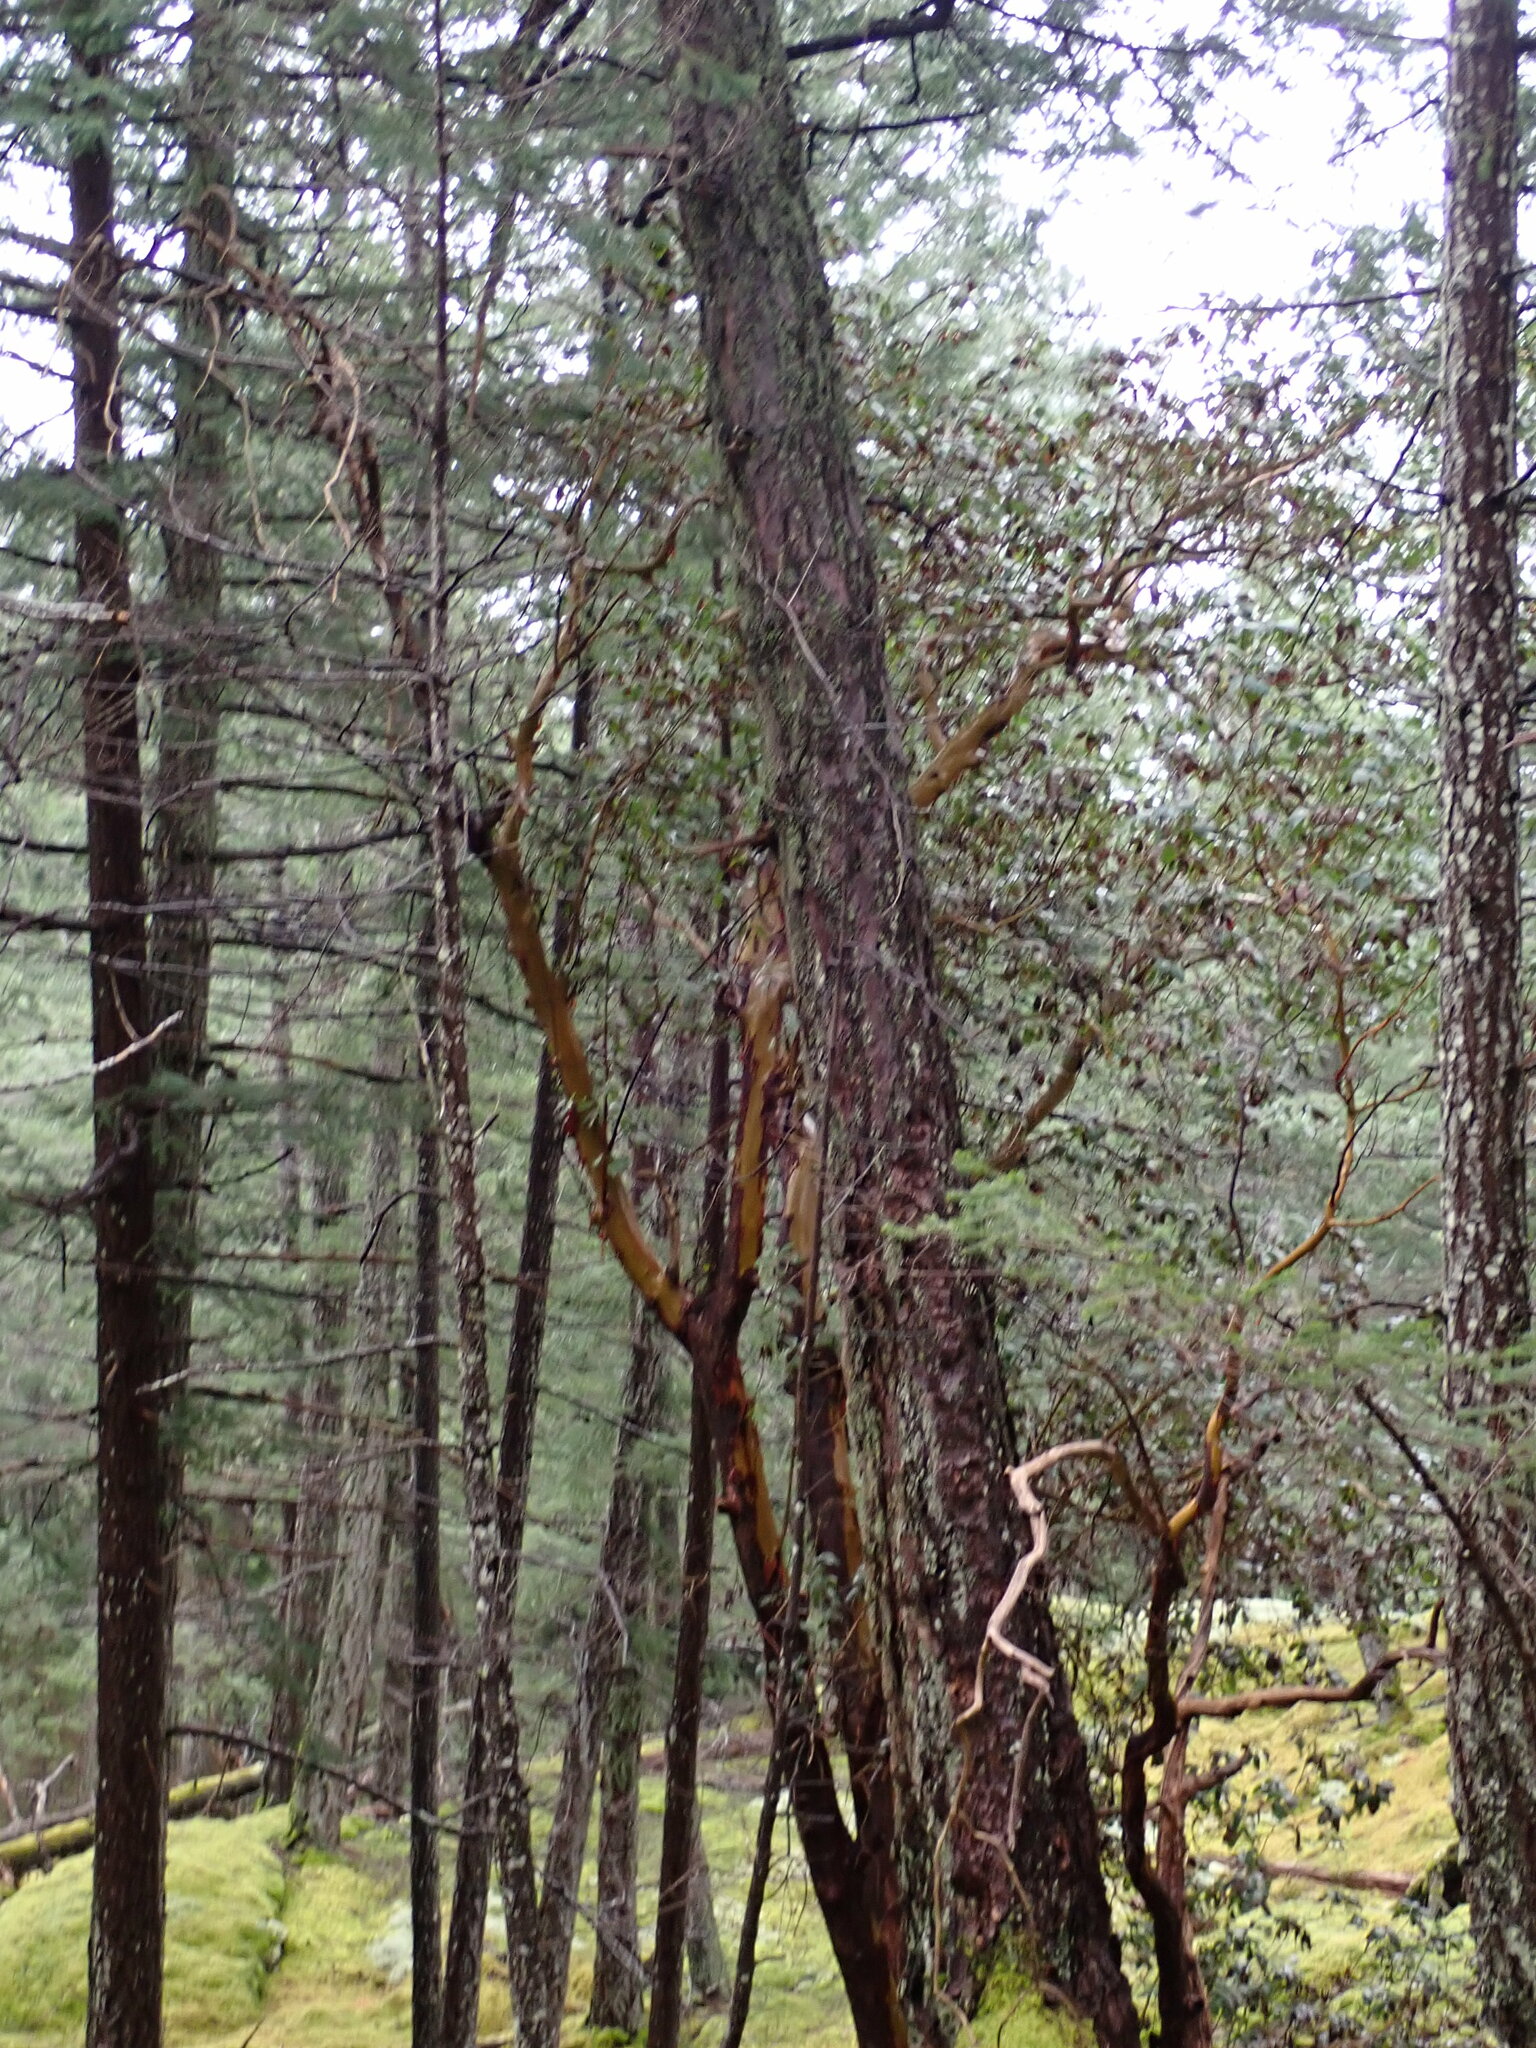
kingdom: Plantae
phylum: Tracheophyta
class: Magnoliopsida
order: Ericales
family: Ericaceae
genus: Arbutus
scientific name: Arbutus menziesii
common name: Pacific madrone
